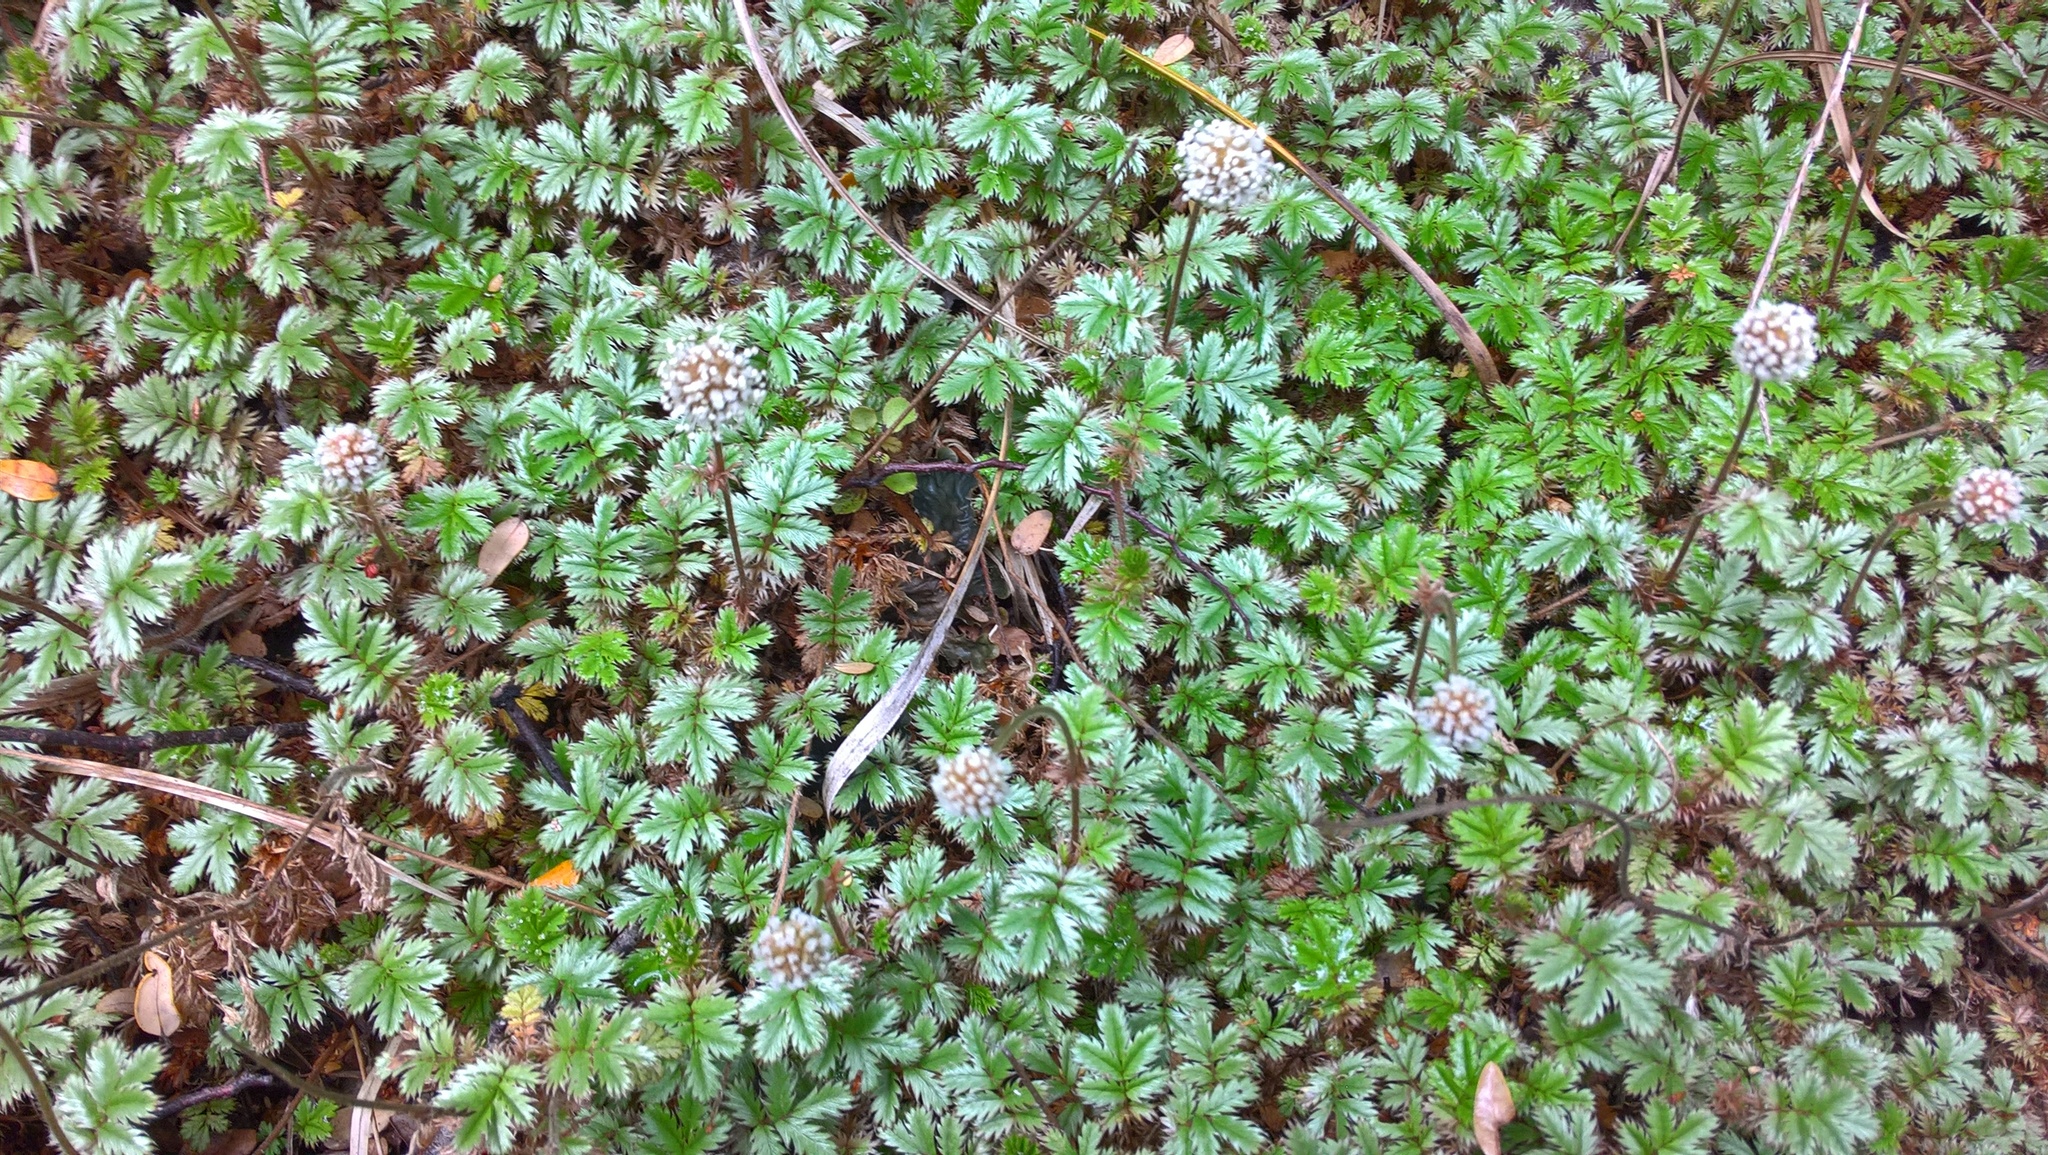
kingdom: Plantae
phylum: Tracheophyta
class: Magnoliopsida
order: Rosales
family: Rosaceae
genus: Acaena
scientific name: Acaena anserinifolia
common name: Bronze pirri-pirri-bur
